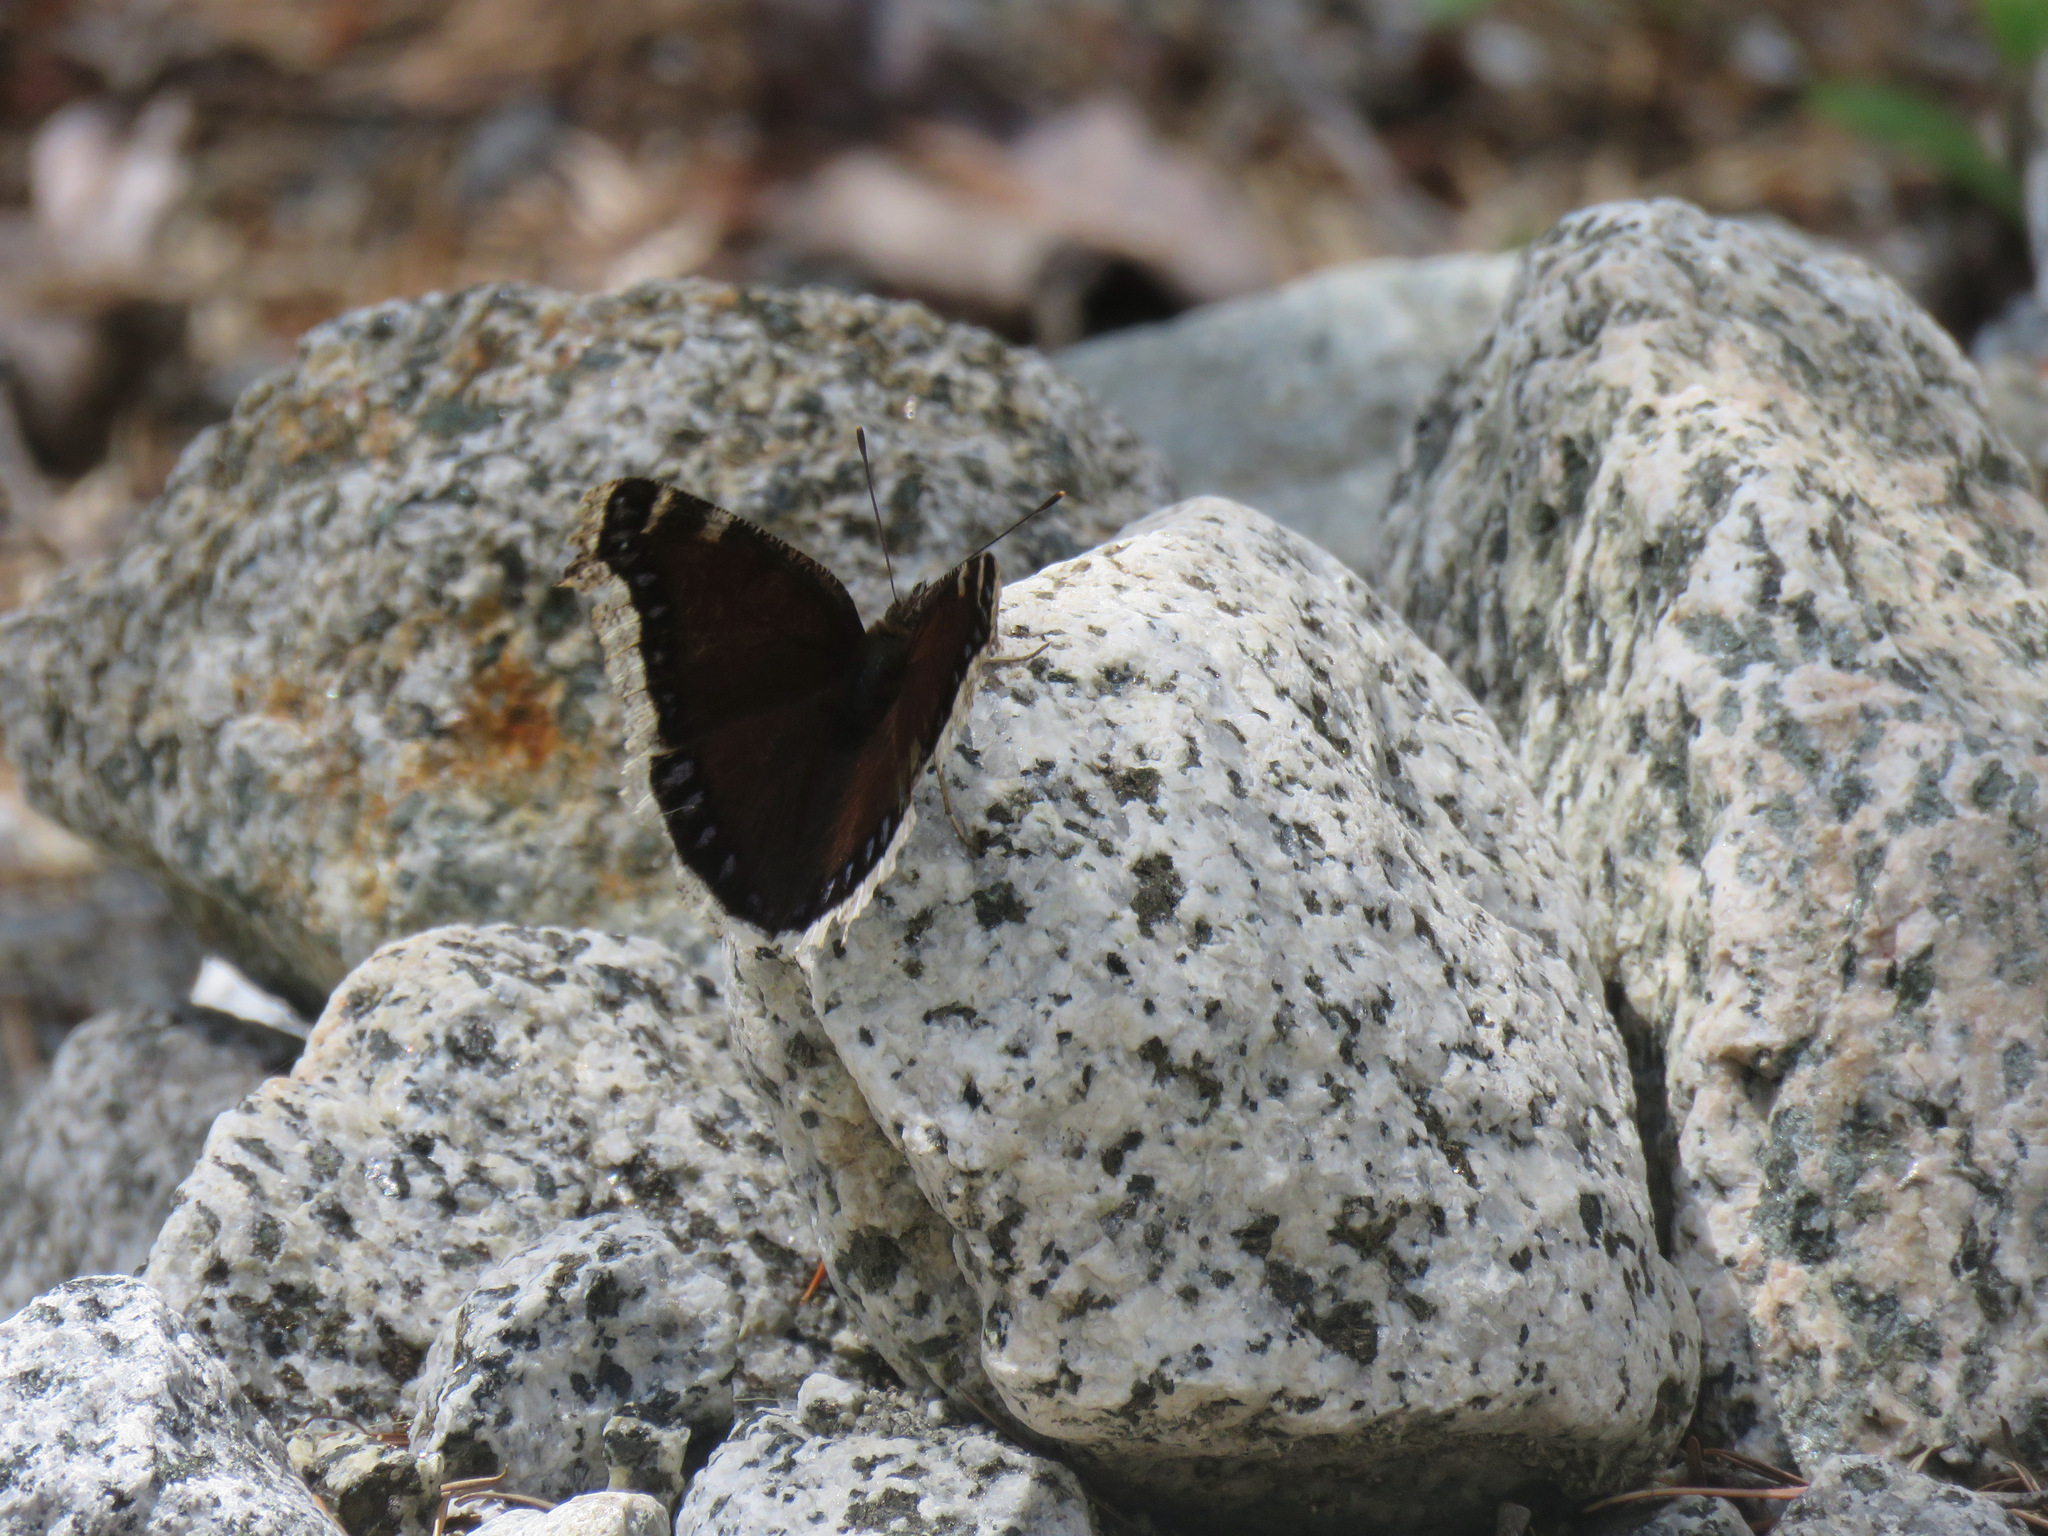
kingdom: Animalia
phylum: Arthropoda
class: Insecta
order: Lepidoptera
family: Nymphalidae
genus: Nymphalis
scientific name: Nymphalis antiopa
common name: Camberwell beauty
